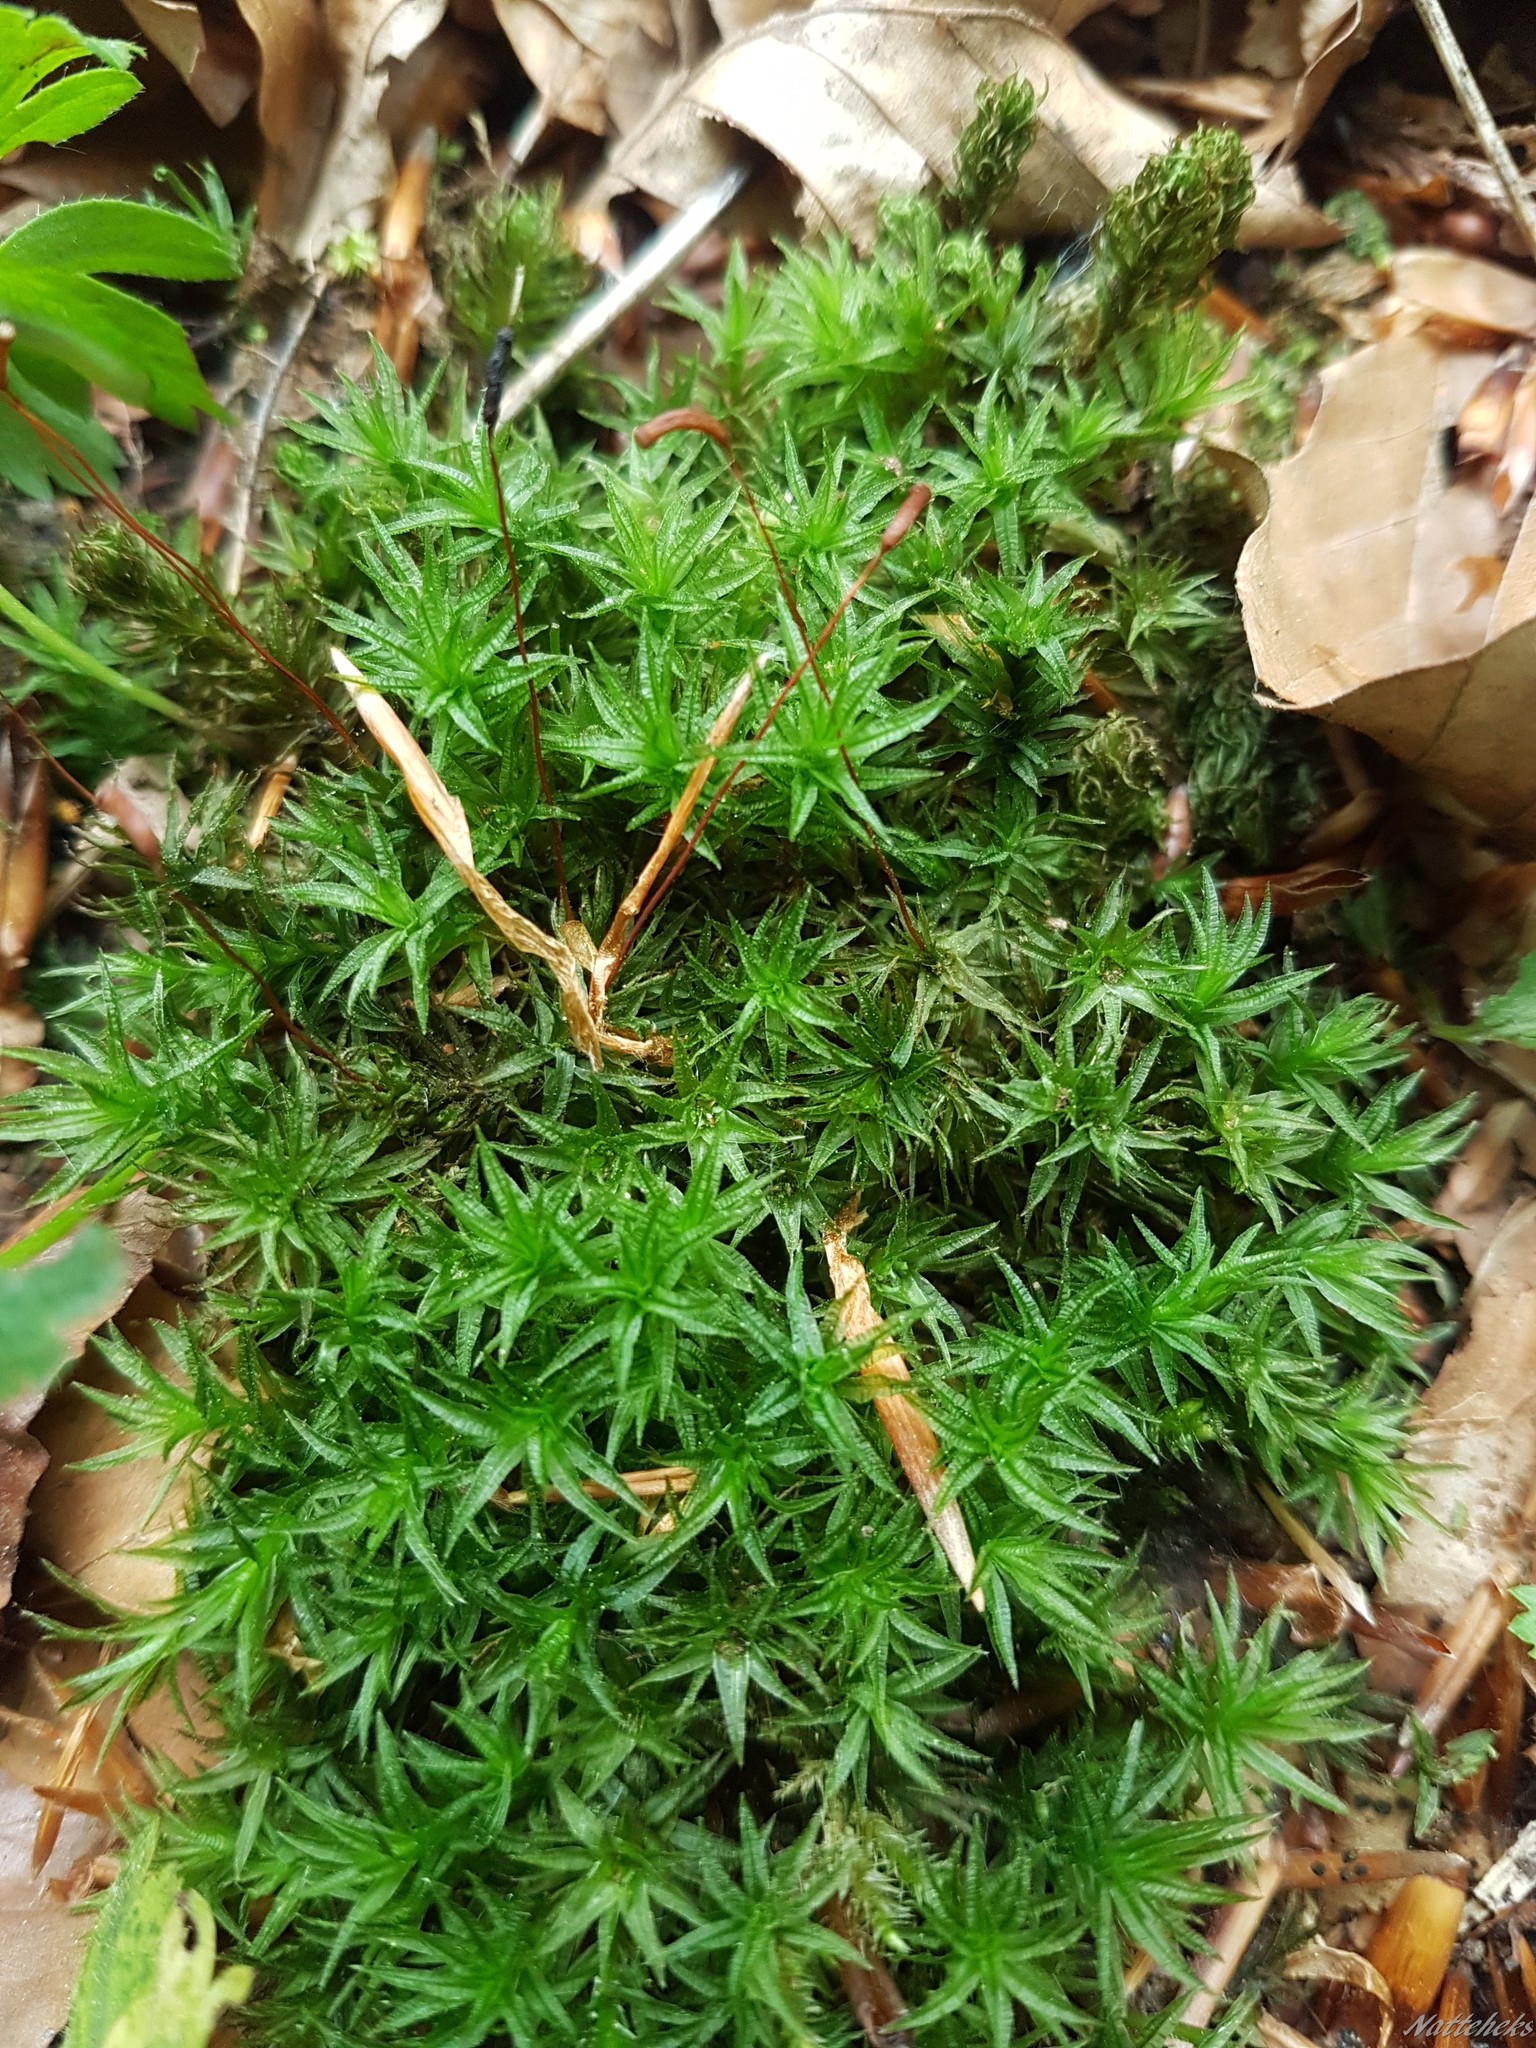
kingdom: Plantae
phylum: Bryophyta
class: Polytrichopsida
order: Polytrichales
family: Polytrichaceae
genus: Atrichum
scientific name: Atrichum undulatum
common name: Common smoothcap
